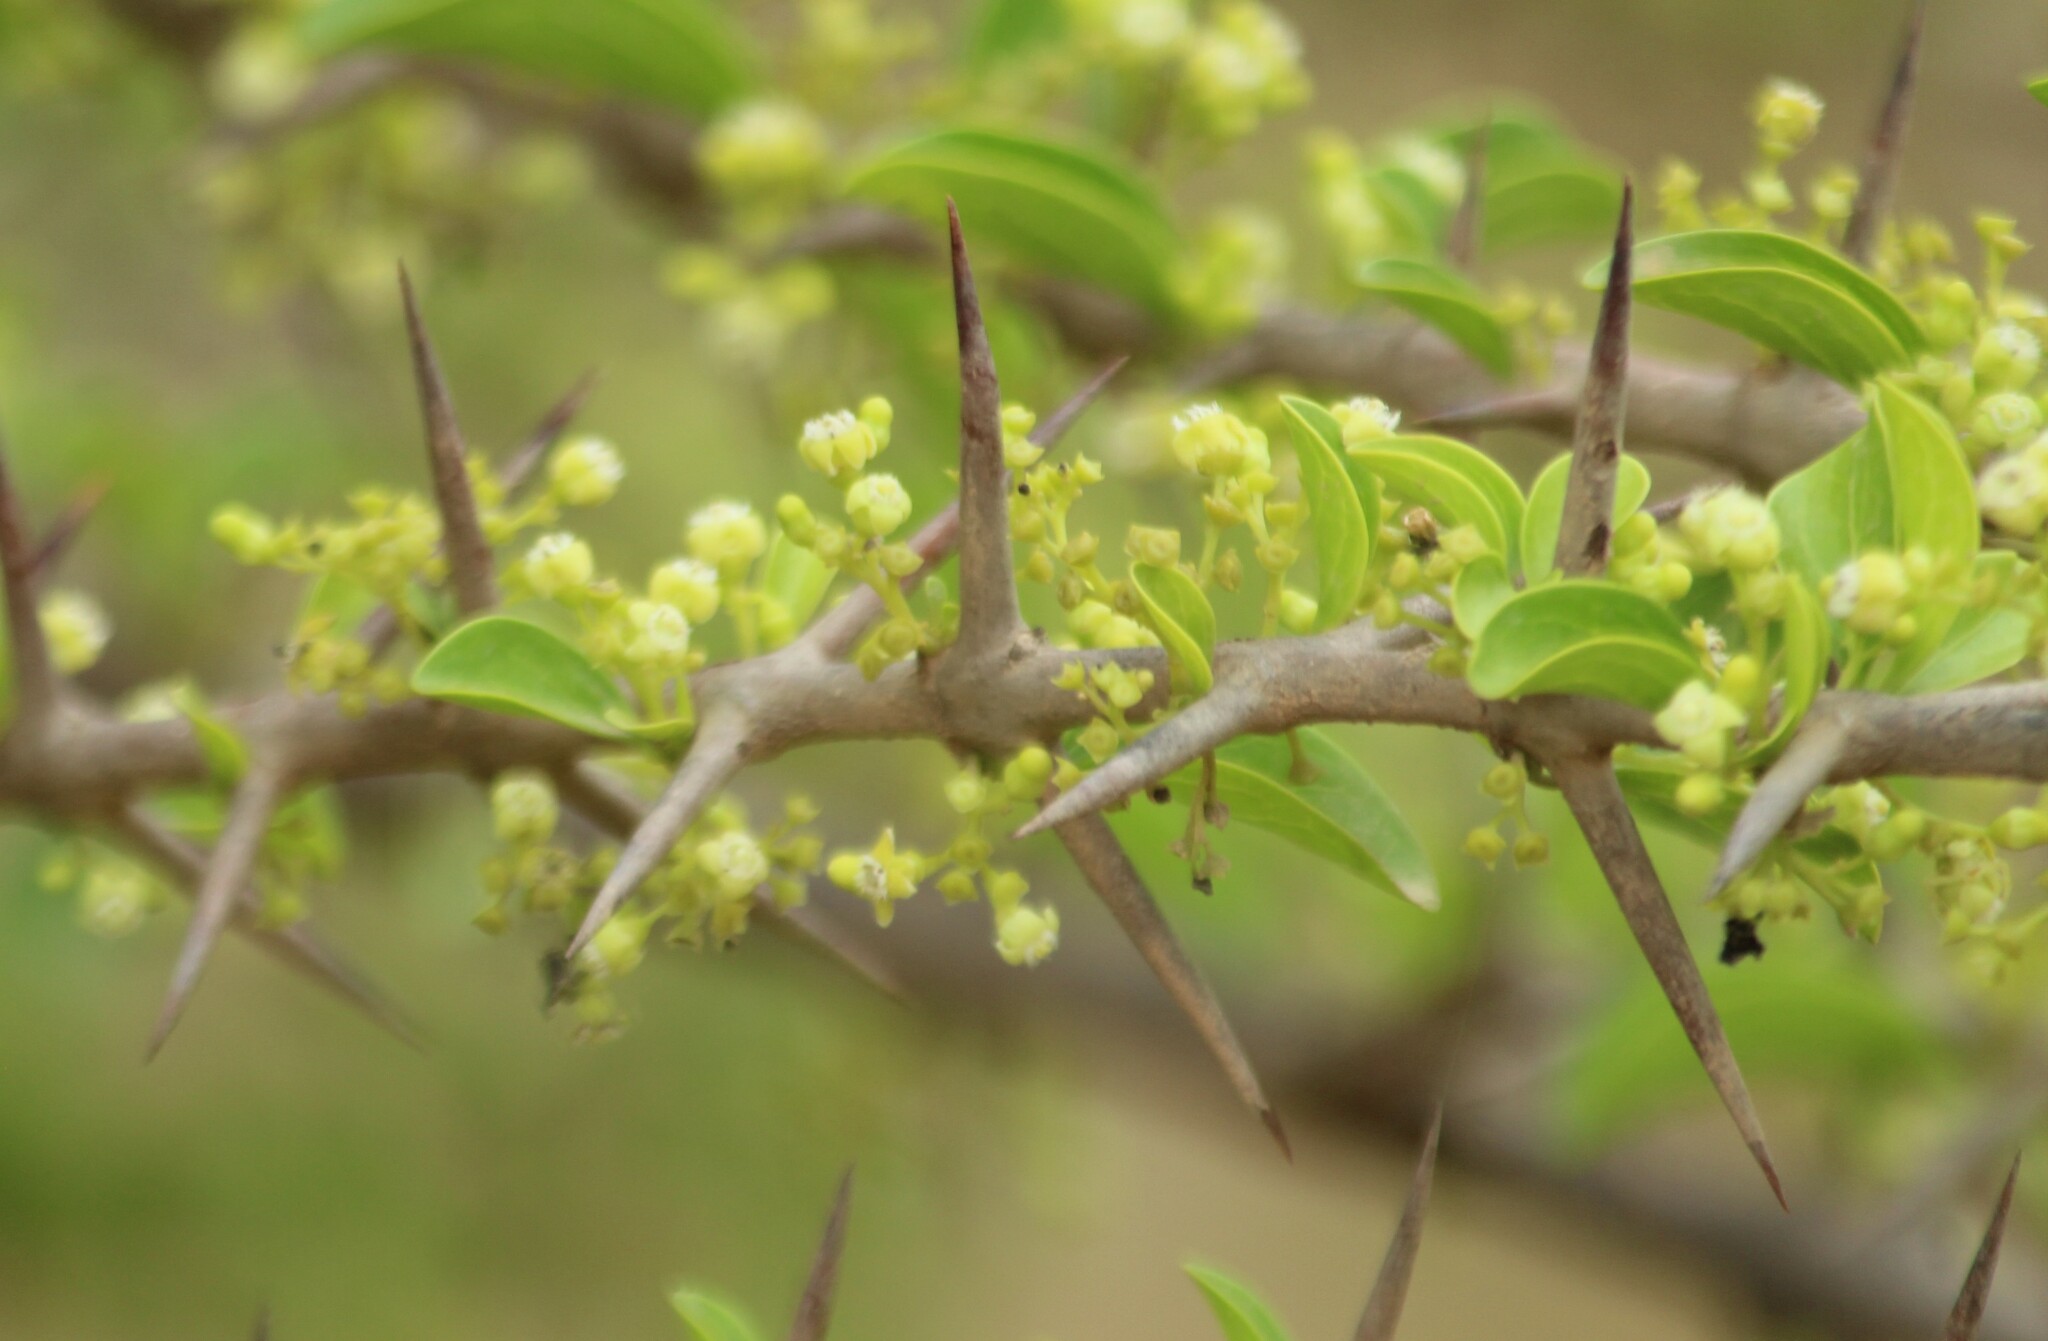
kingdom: Plantae
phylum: Tracheophyta
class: Magnoliopsida
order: Gentianales
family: Rubiaceae
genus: Canthium
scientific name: Canthium coromandelicum
